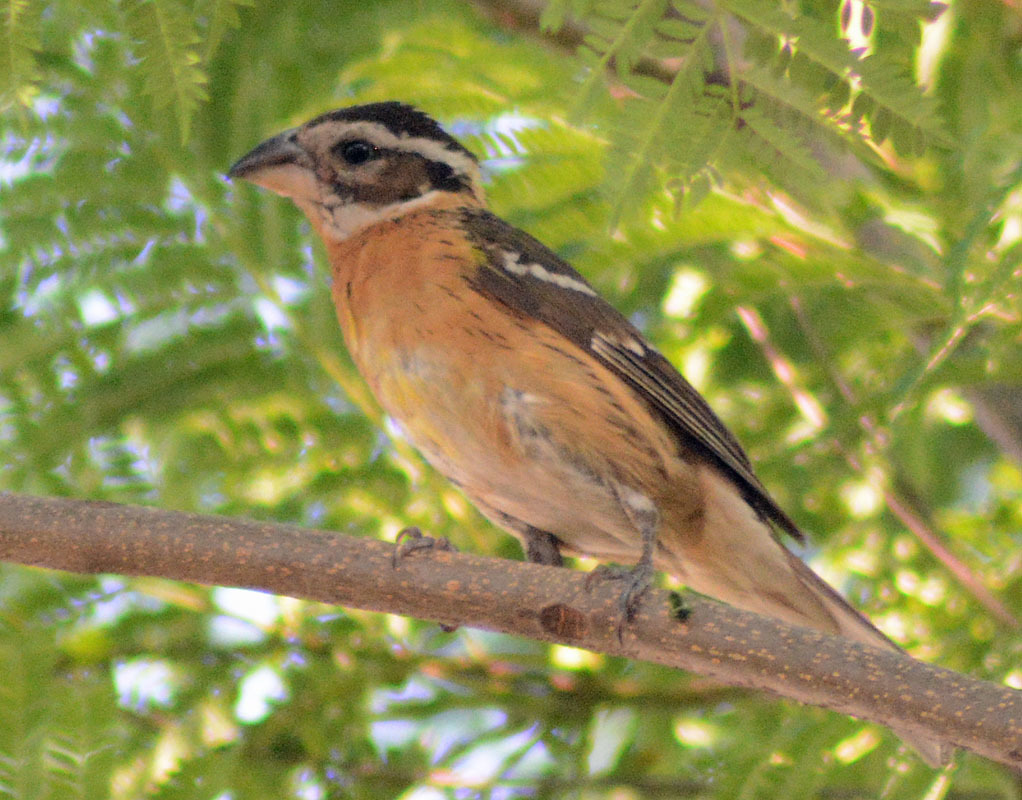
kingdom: Animalia
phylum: Chordata
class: Aves
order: Passeriformes
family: Cardinalidae
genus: Pheucticus
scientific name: Pheucticus melanocephalus
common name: Black-headed grosbeak
